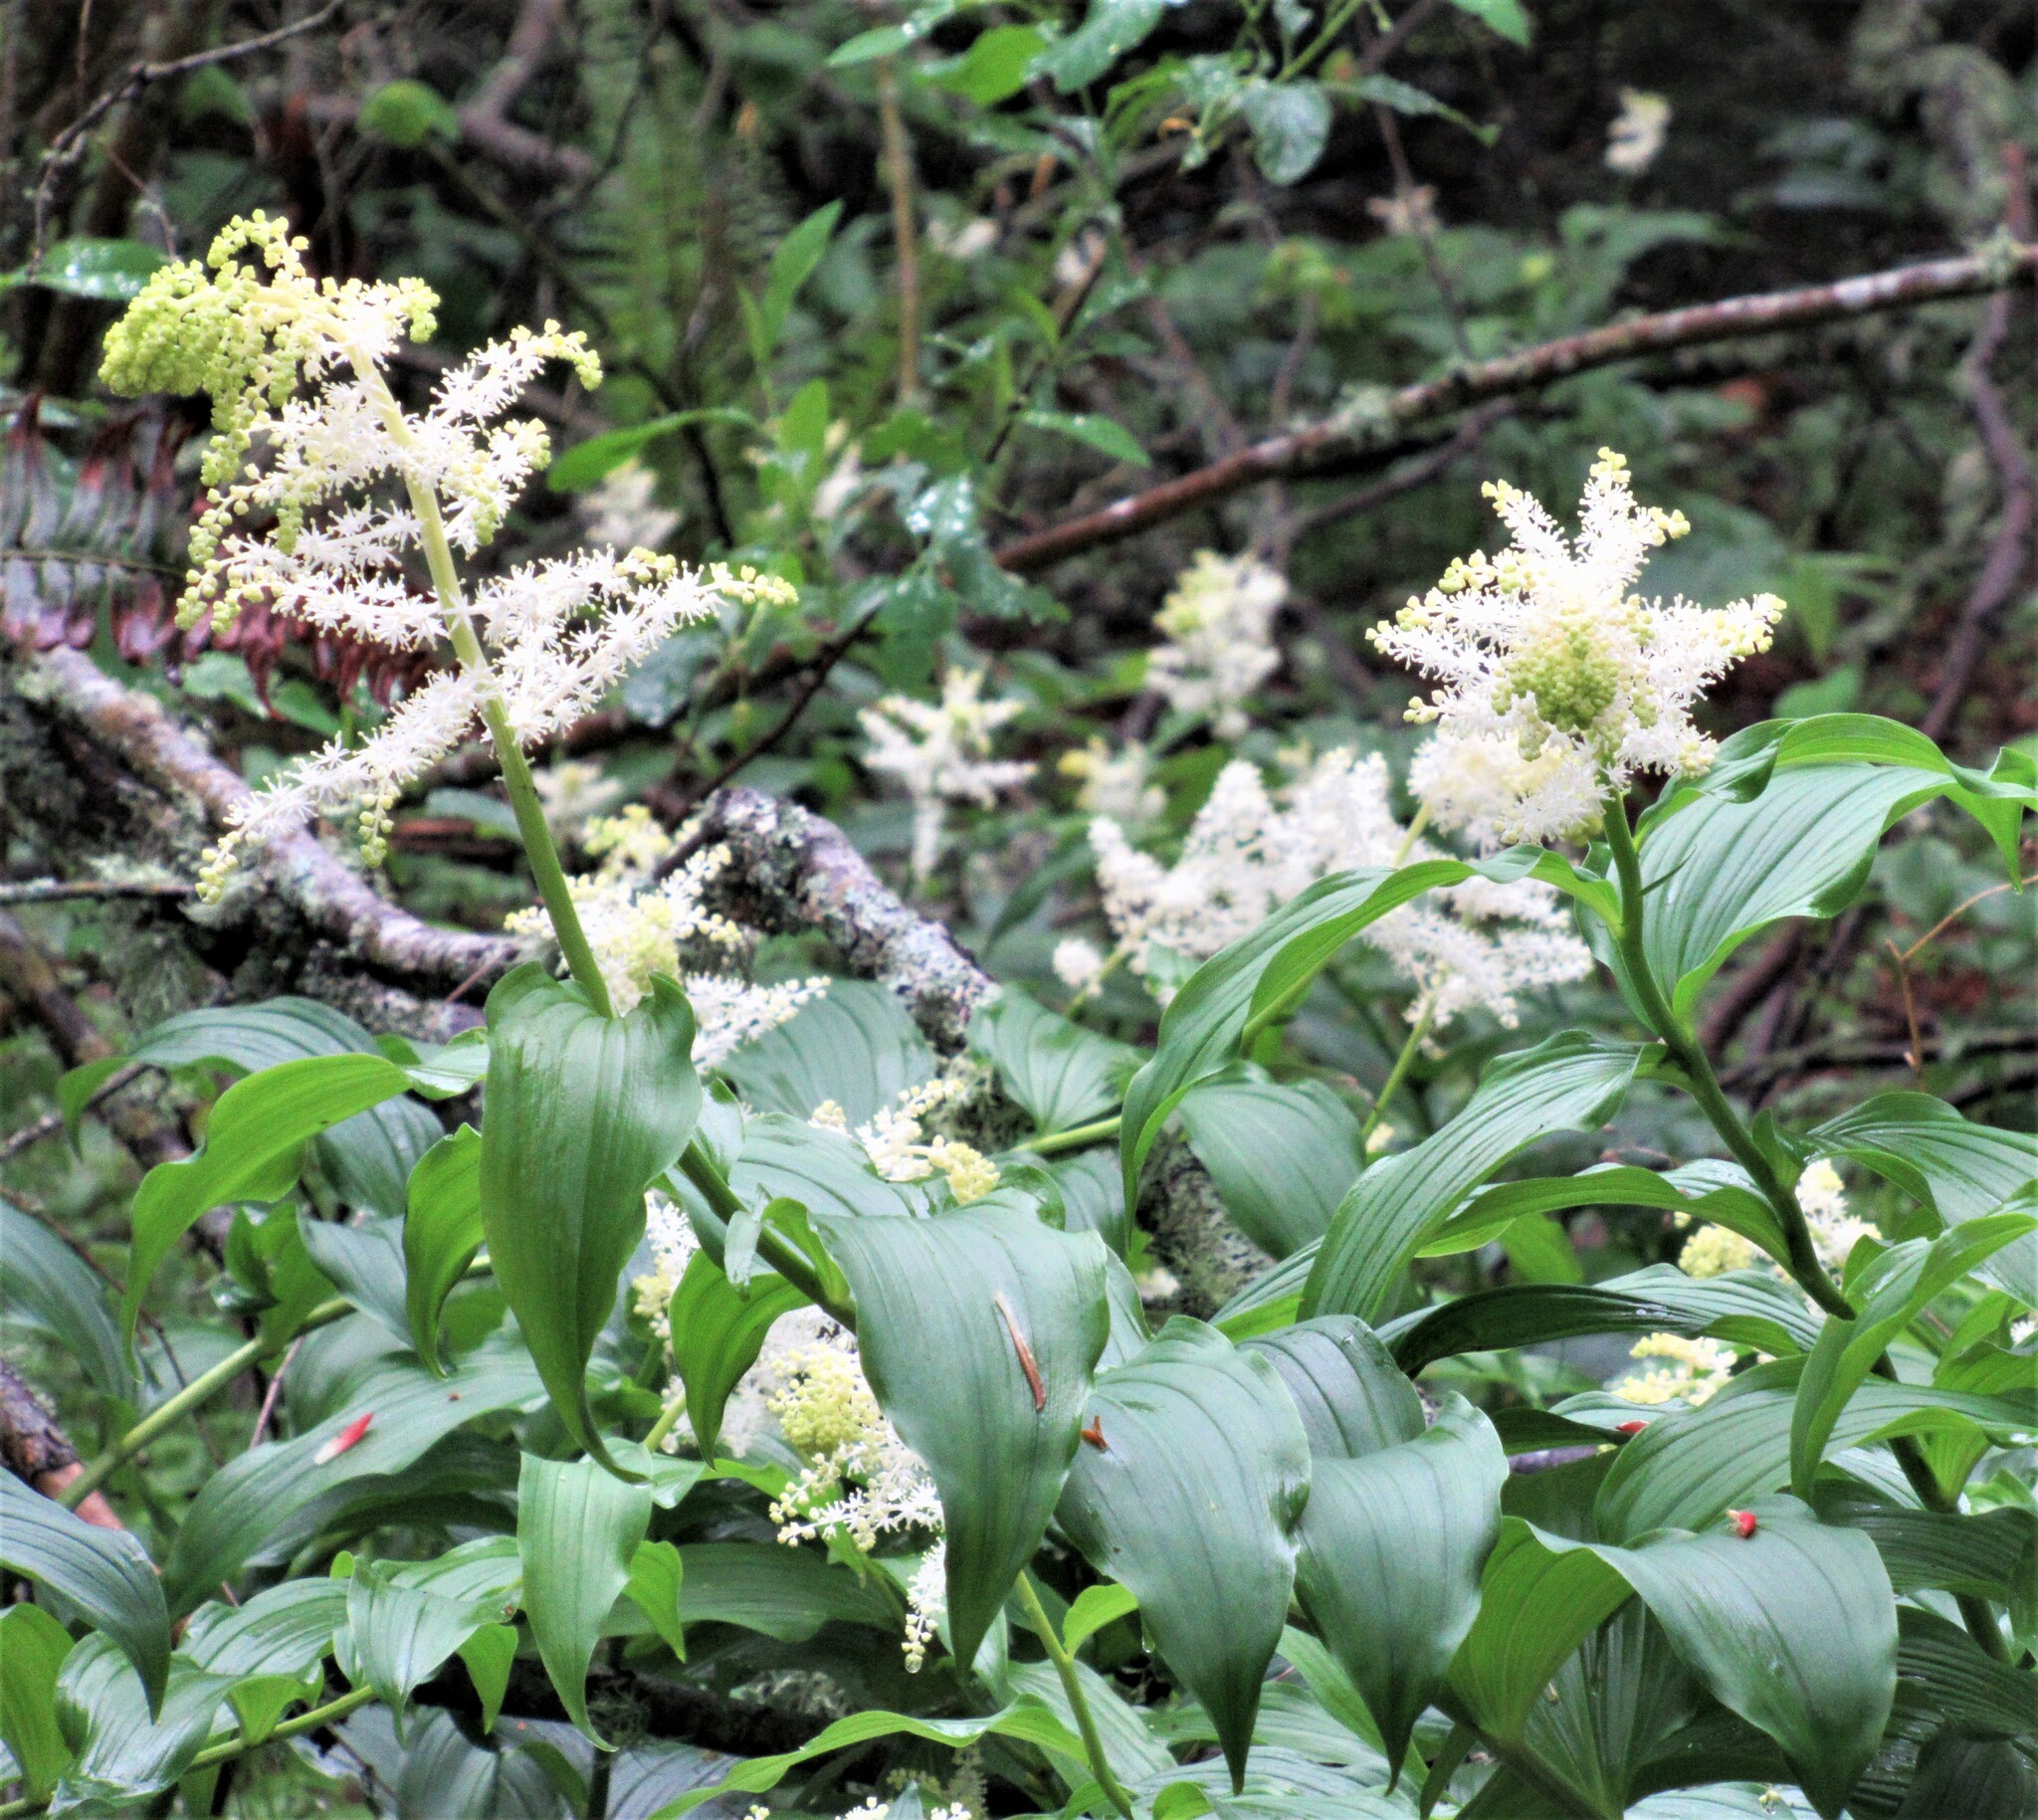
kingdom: Plantae
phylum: Tracheophyta
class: Liliopsida
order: Asparagales
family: Asparagaceae
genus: Maianthemum
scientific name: Maianthemum racemosum
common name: False spikenard
